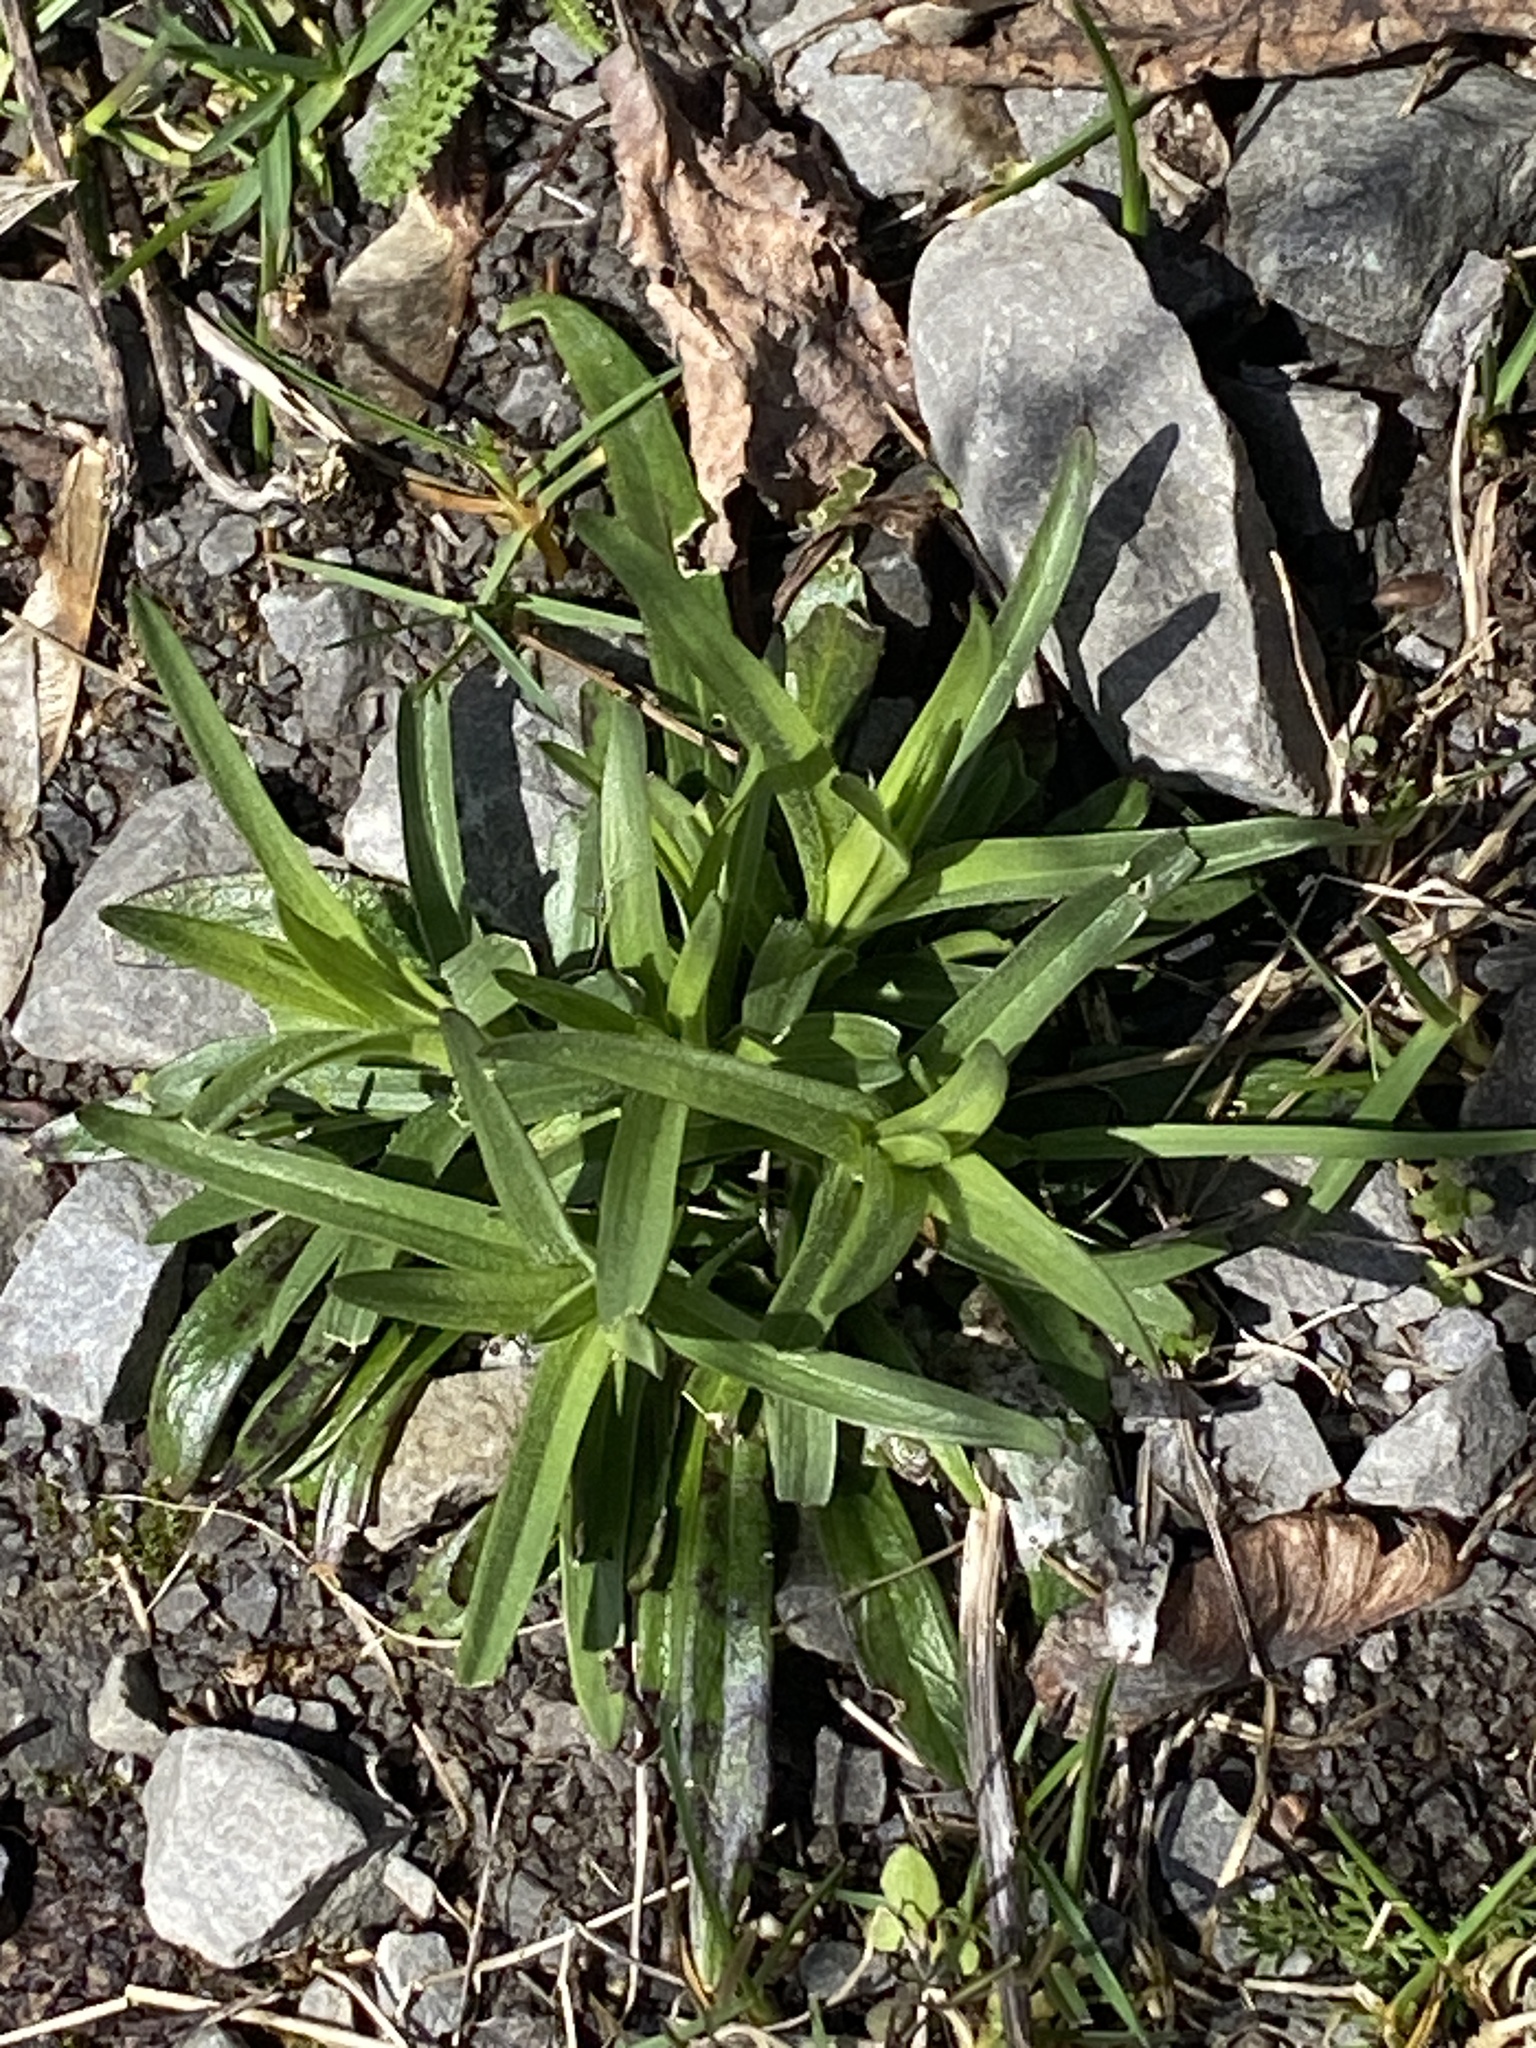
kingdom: Plantae
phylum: Tracheophyta
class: Magnoliopsida
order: Caryophyllales
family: Caryophyllaceae
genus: Dianthus
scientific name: Dianthus armeria
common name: Deptford pink
